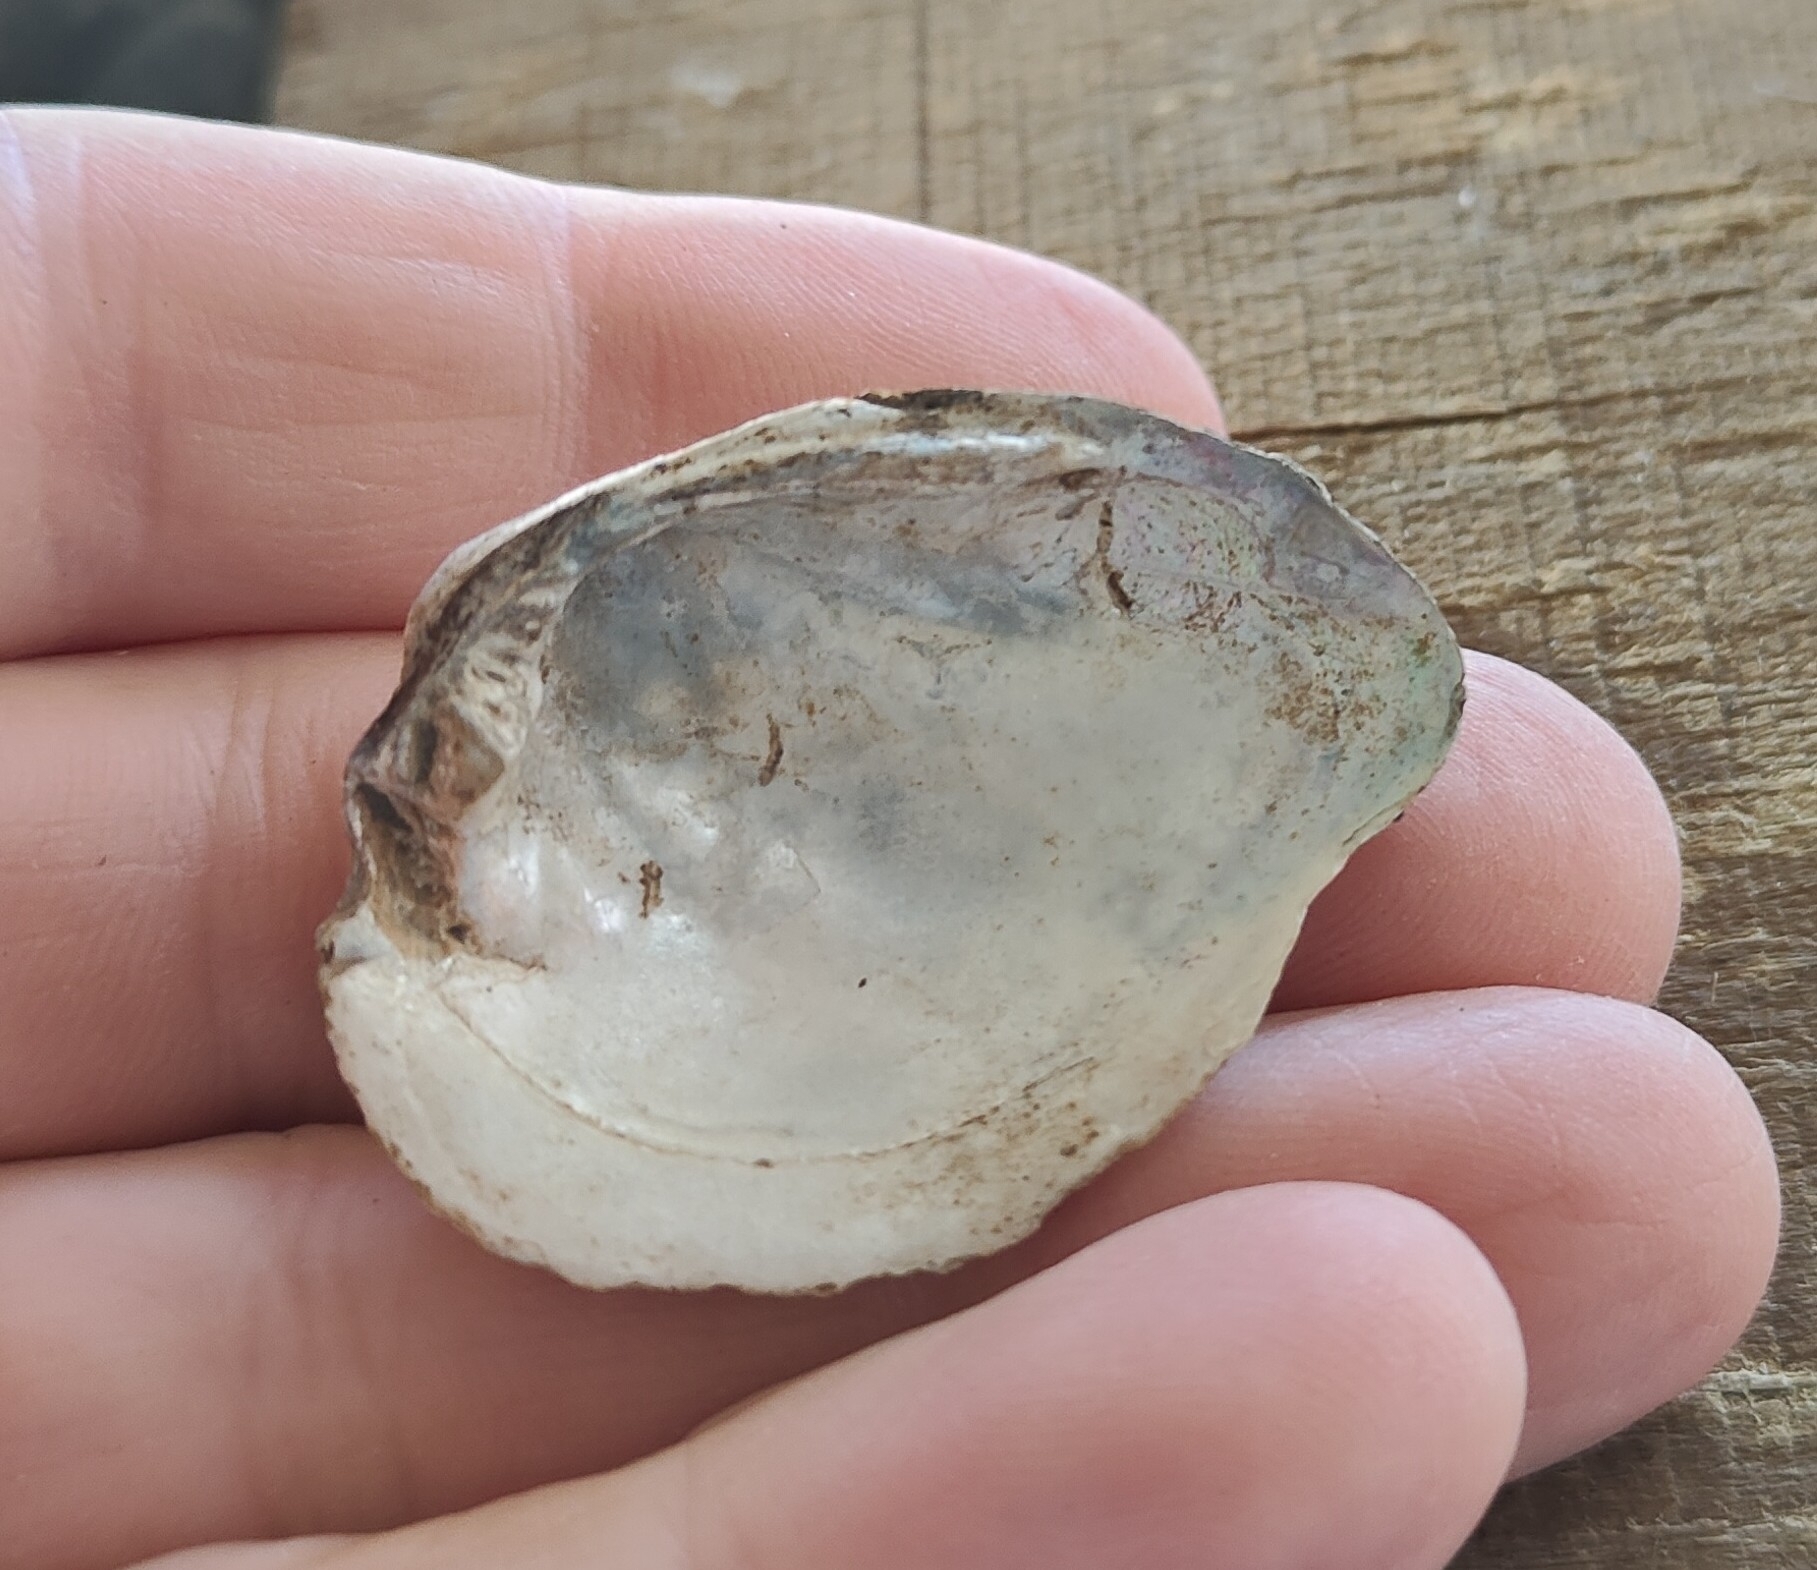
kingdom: Animalia
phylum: Mollusca
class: Bivalvia
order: Unionida
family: Unionidae
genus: Fusconaia
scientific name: Fusconaia flava
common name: Wabash pigtoe
